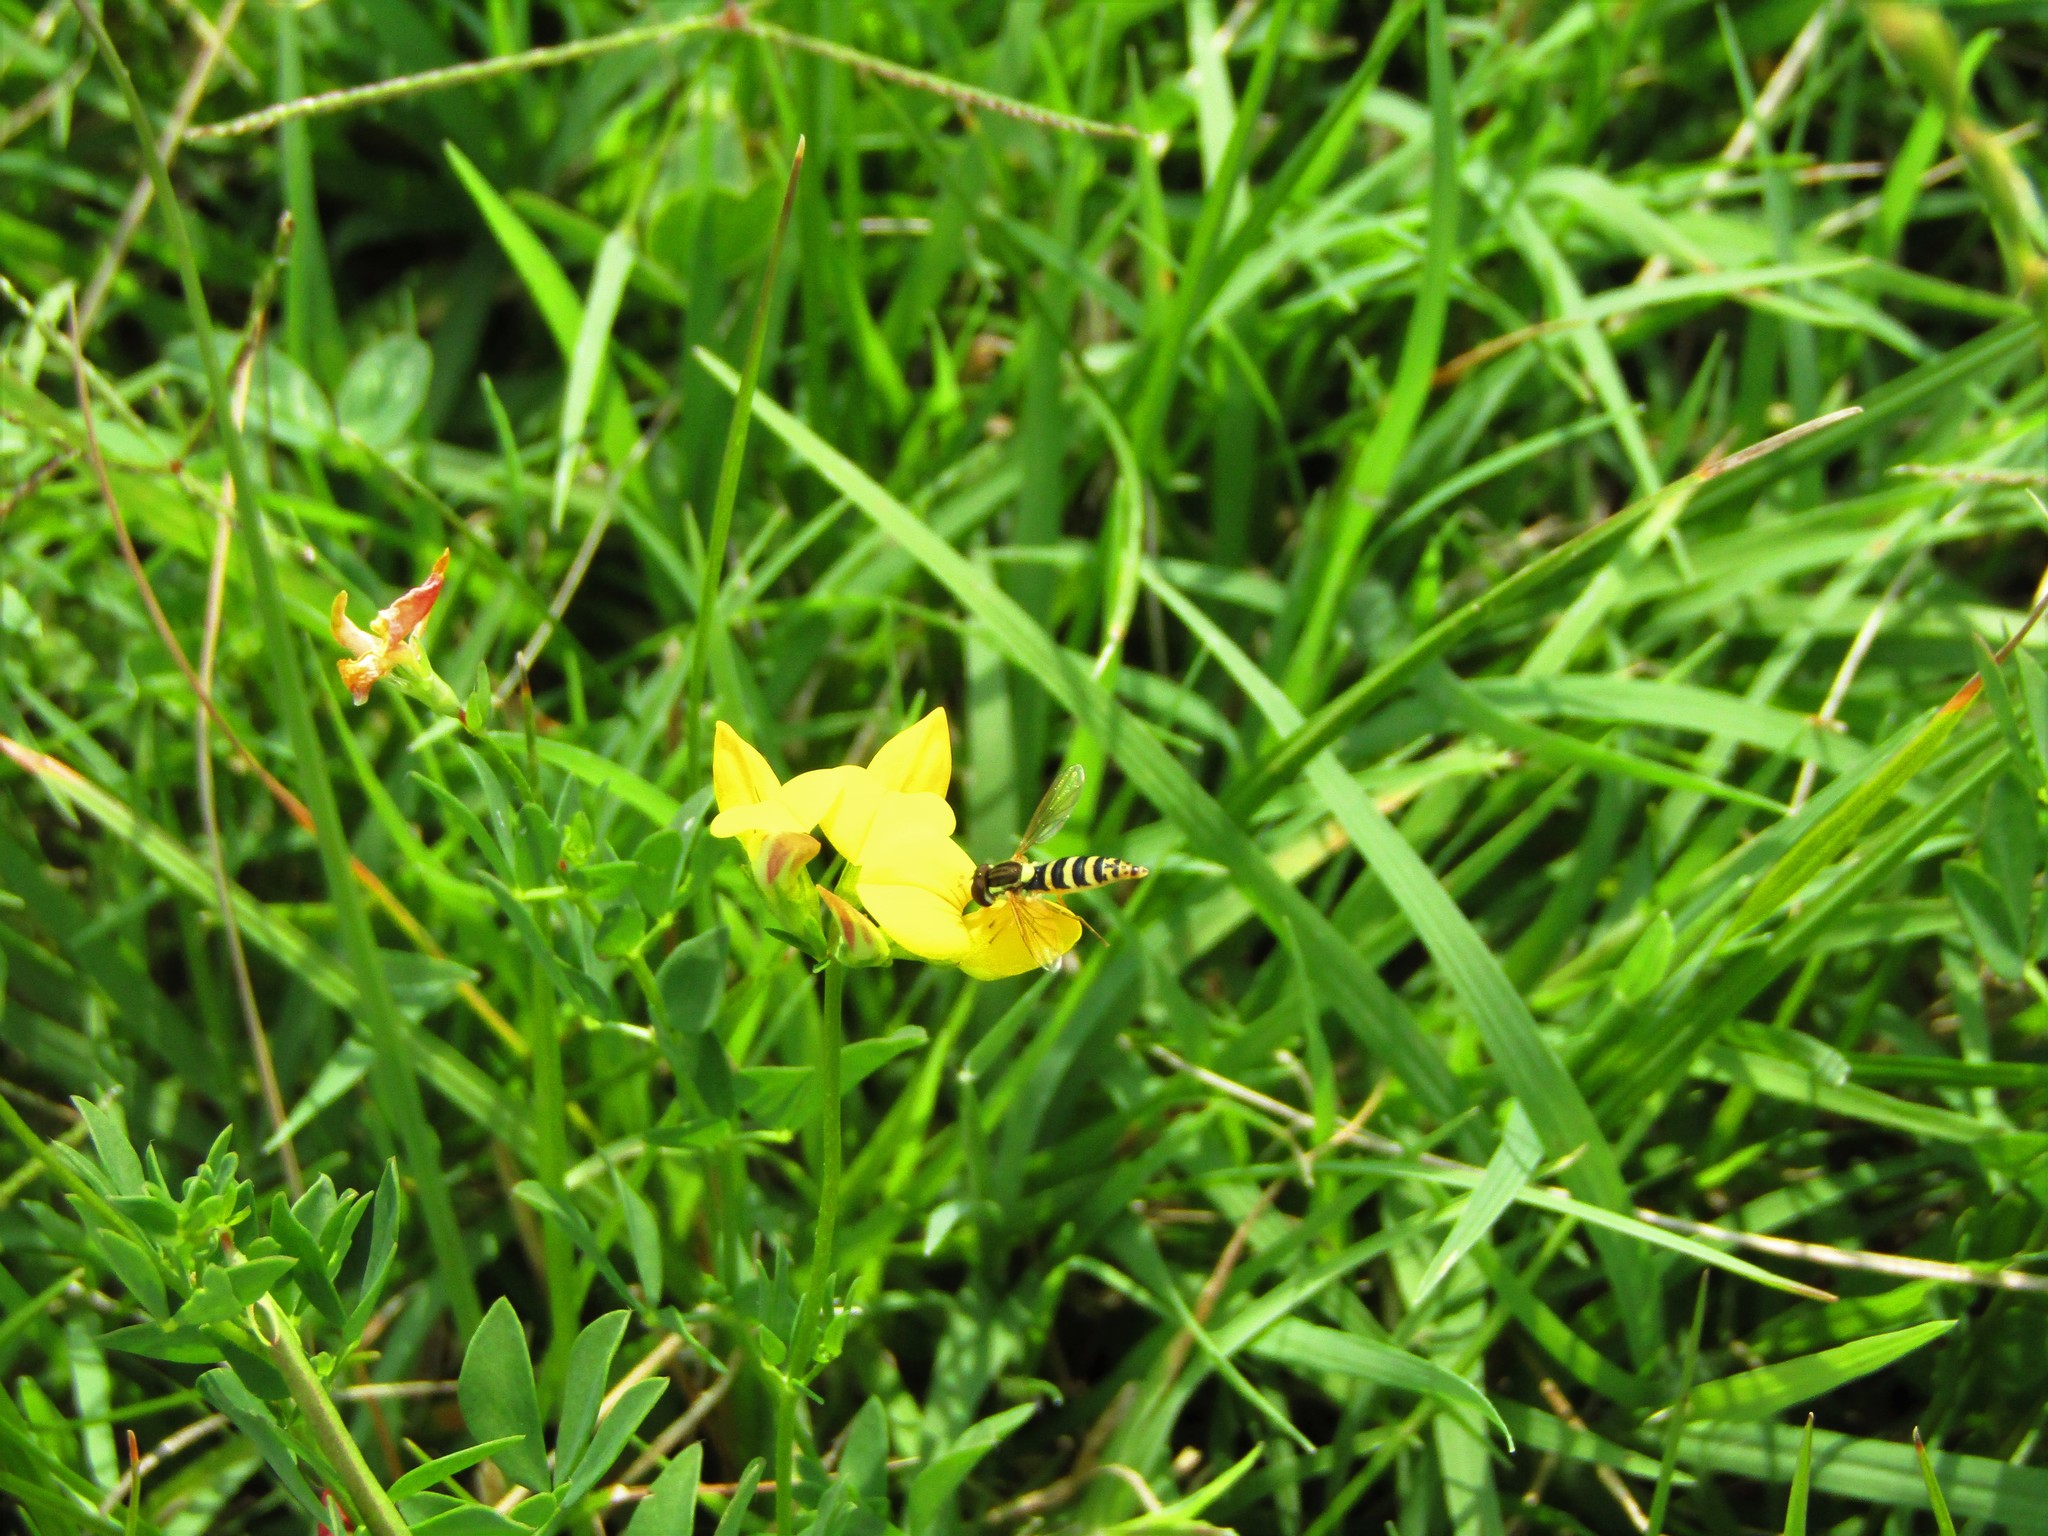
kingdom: Animalia
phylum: Arthropoda
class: Insecta
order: Diptera
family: Syrphidae
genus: Sphaerophoria
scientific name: Sphaerophoria
